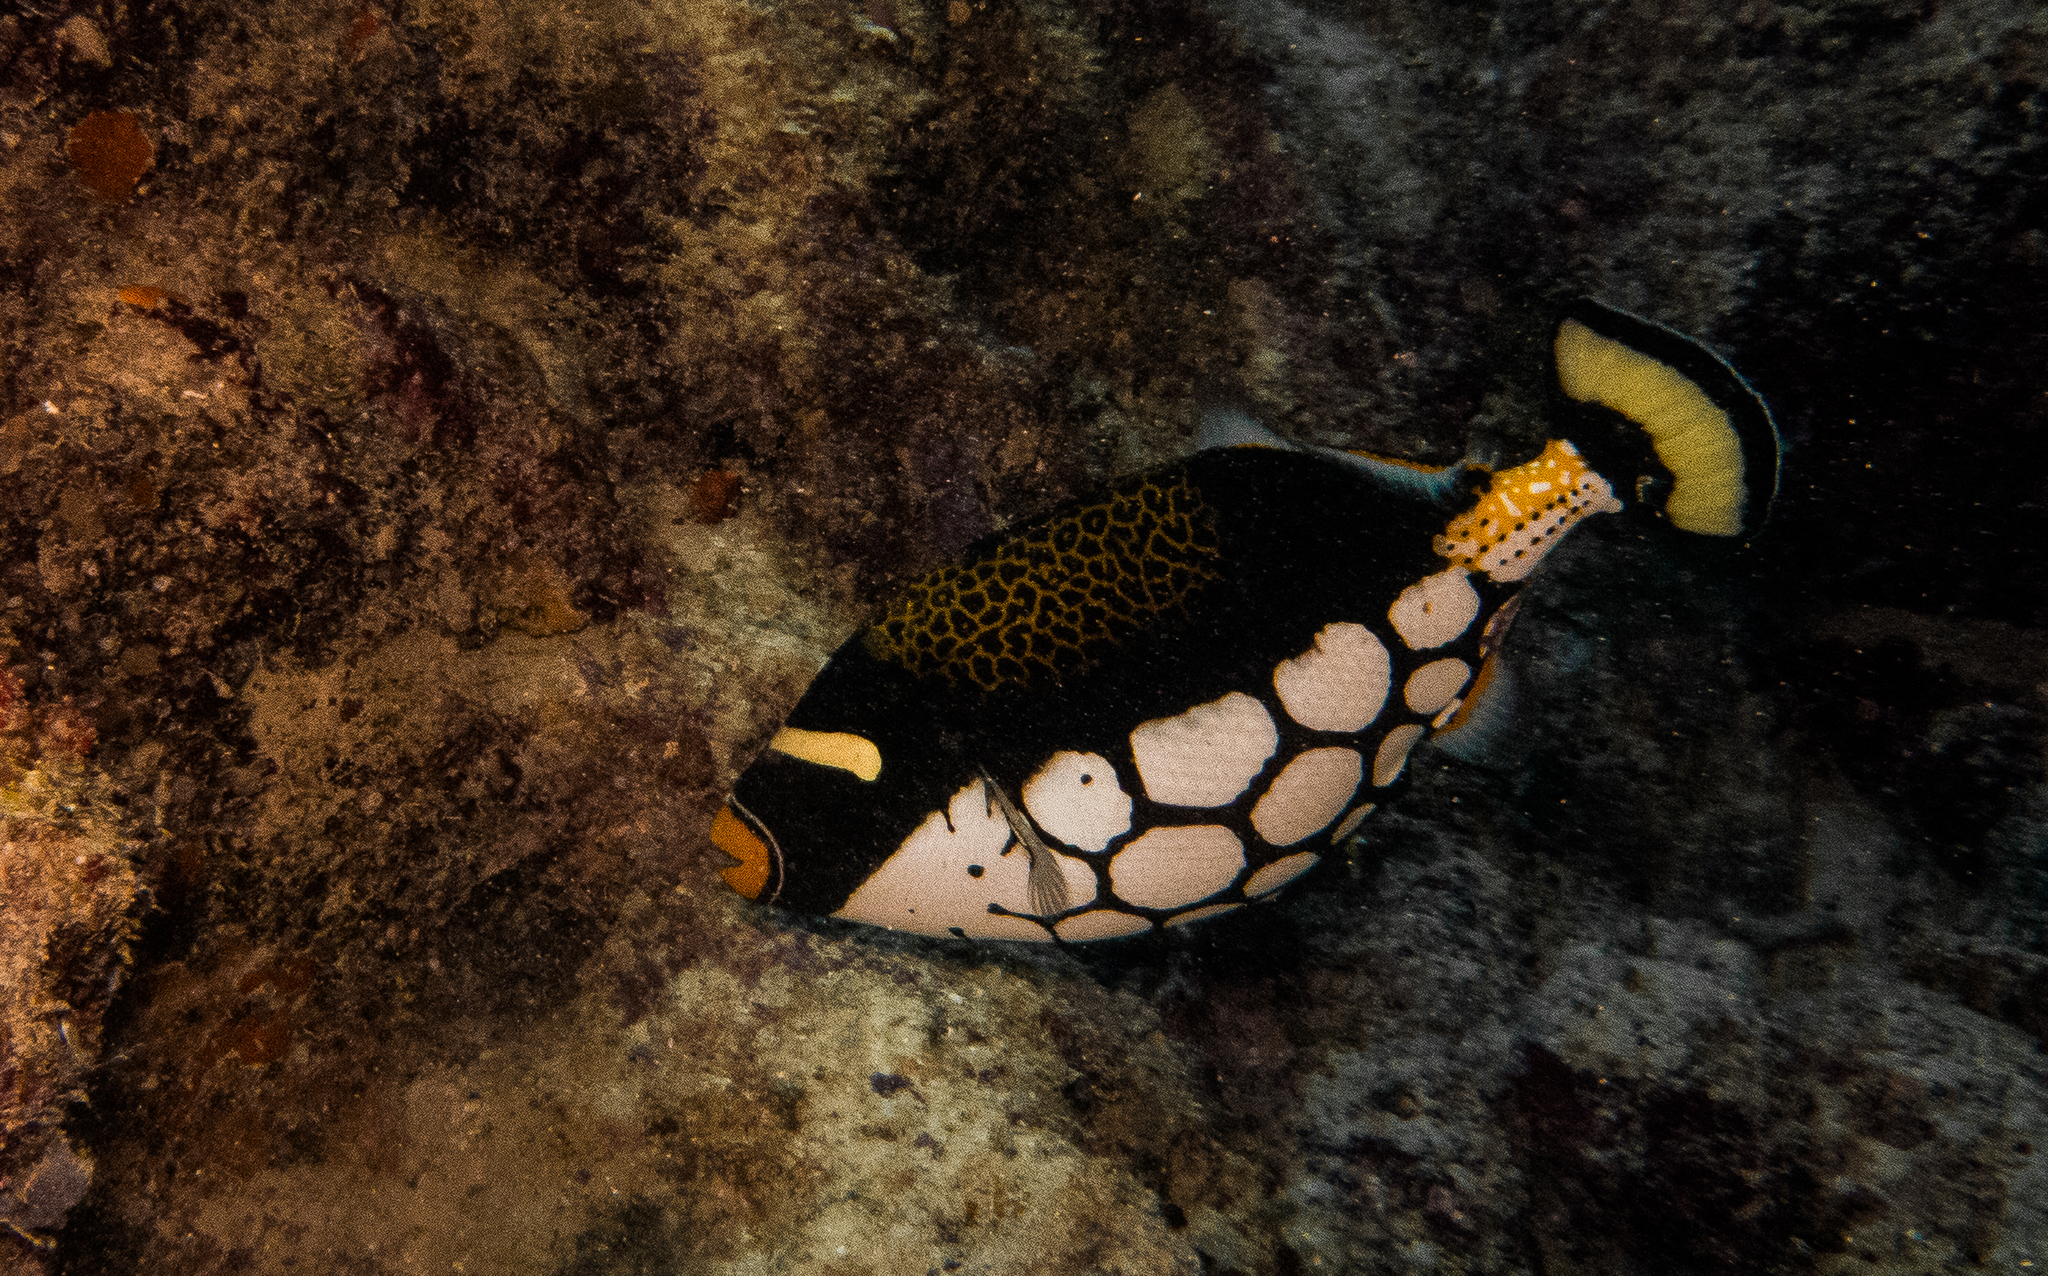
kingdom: Animalia
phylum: Chordata
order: Tetraodontiformes
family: Balistidae
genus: Balistoides
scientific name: Balistoides conspicillum
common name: Clown triggerfish
